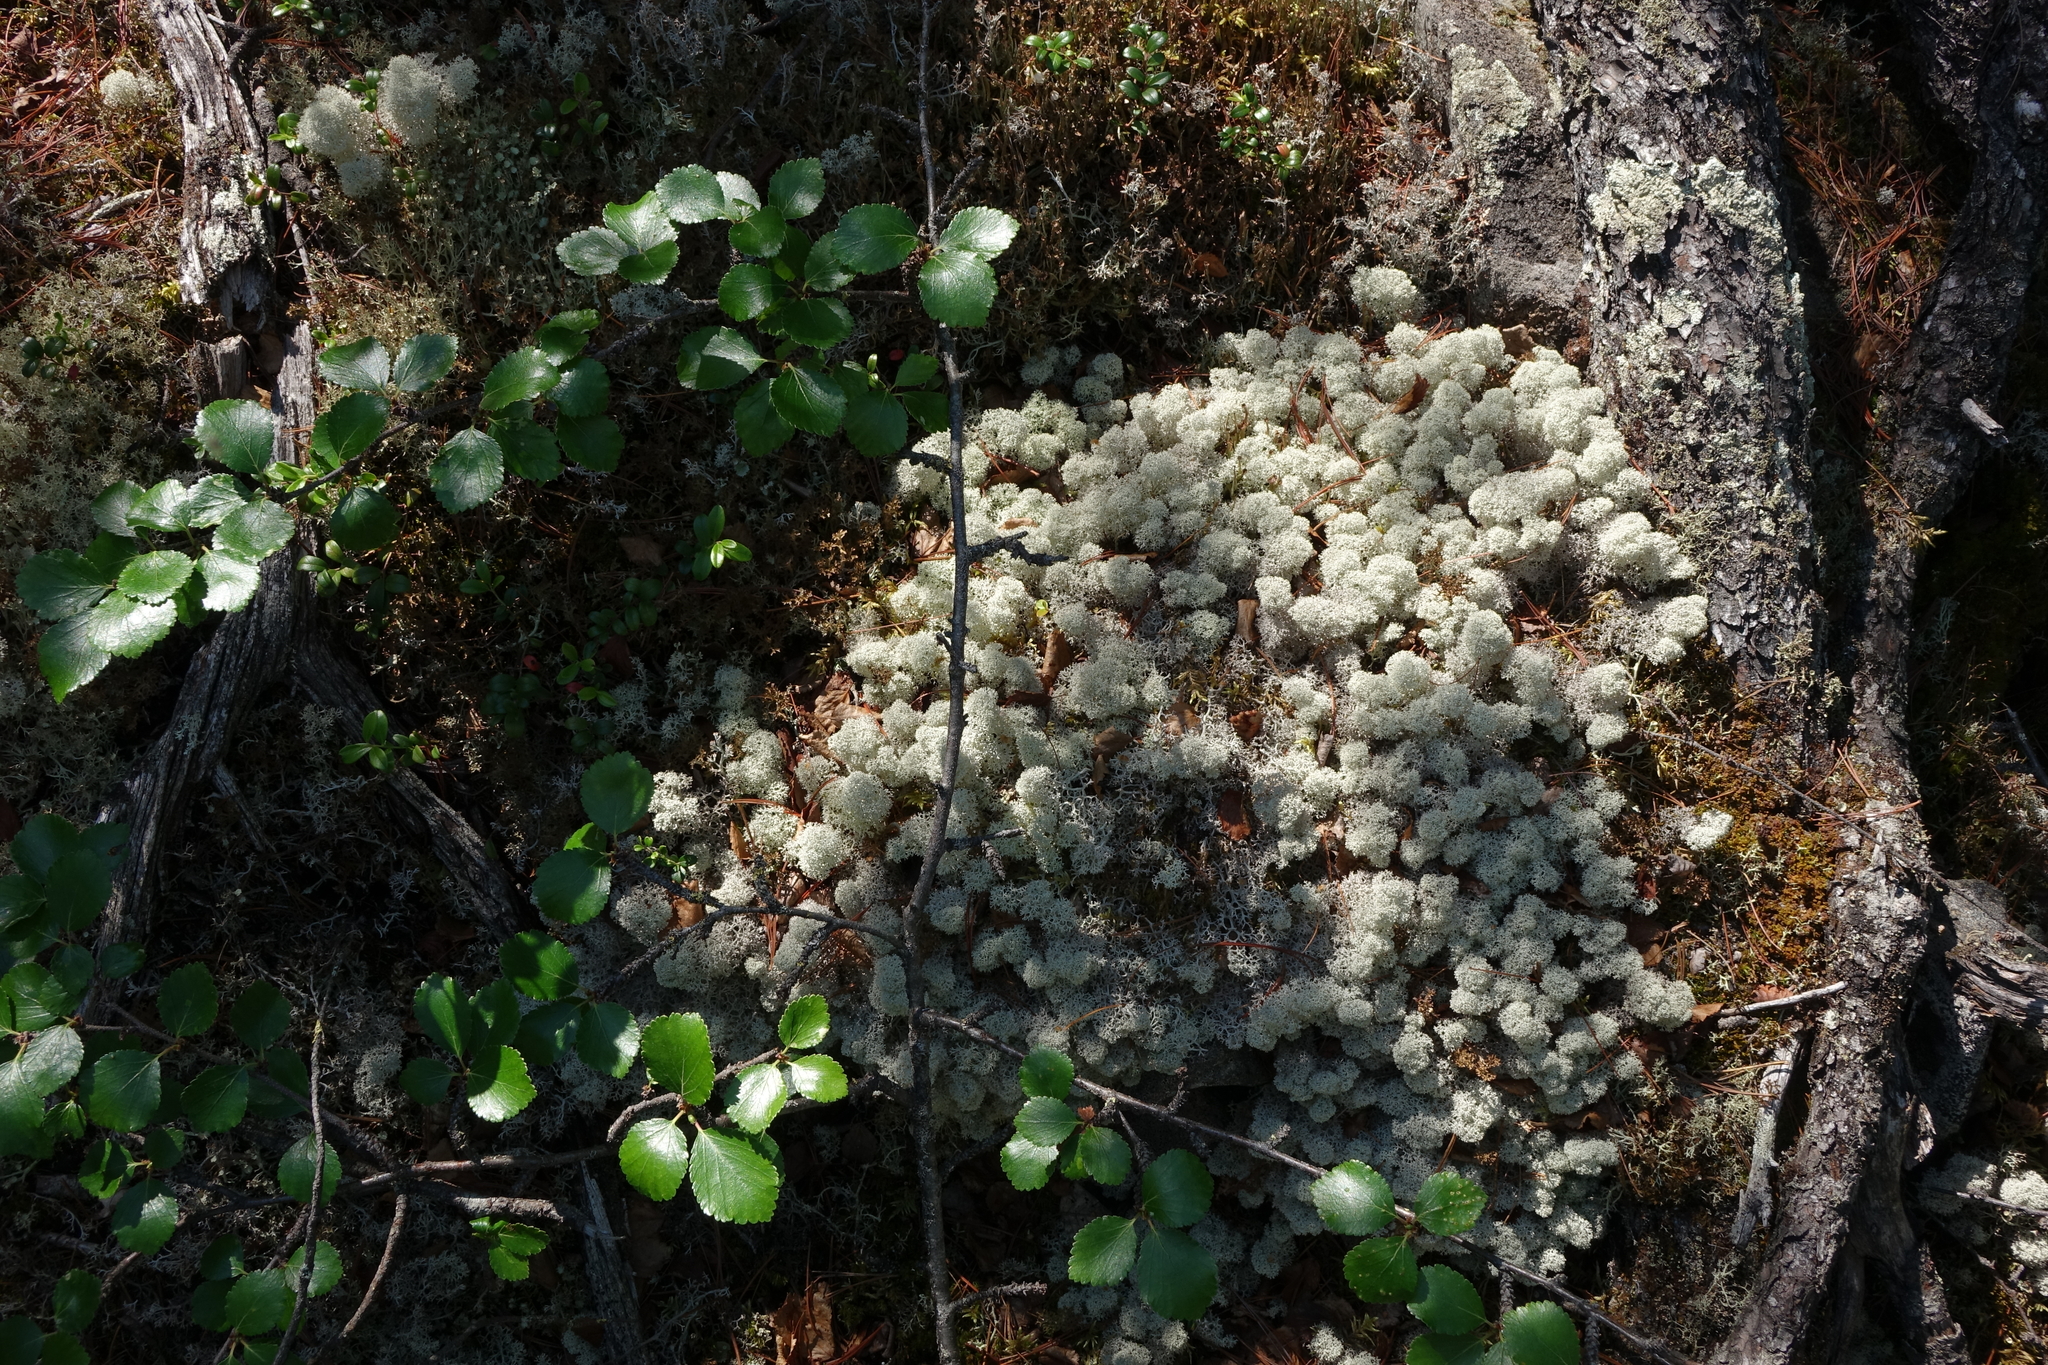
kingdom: Plantae
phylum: Tracheophyta
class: Magnoliopsida
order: Fagales
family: Betulaceae
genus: Betula
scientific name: Betula fruticosa
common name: Japanese bog birch
